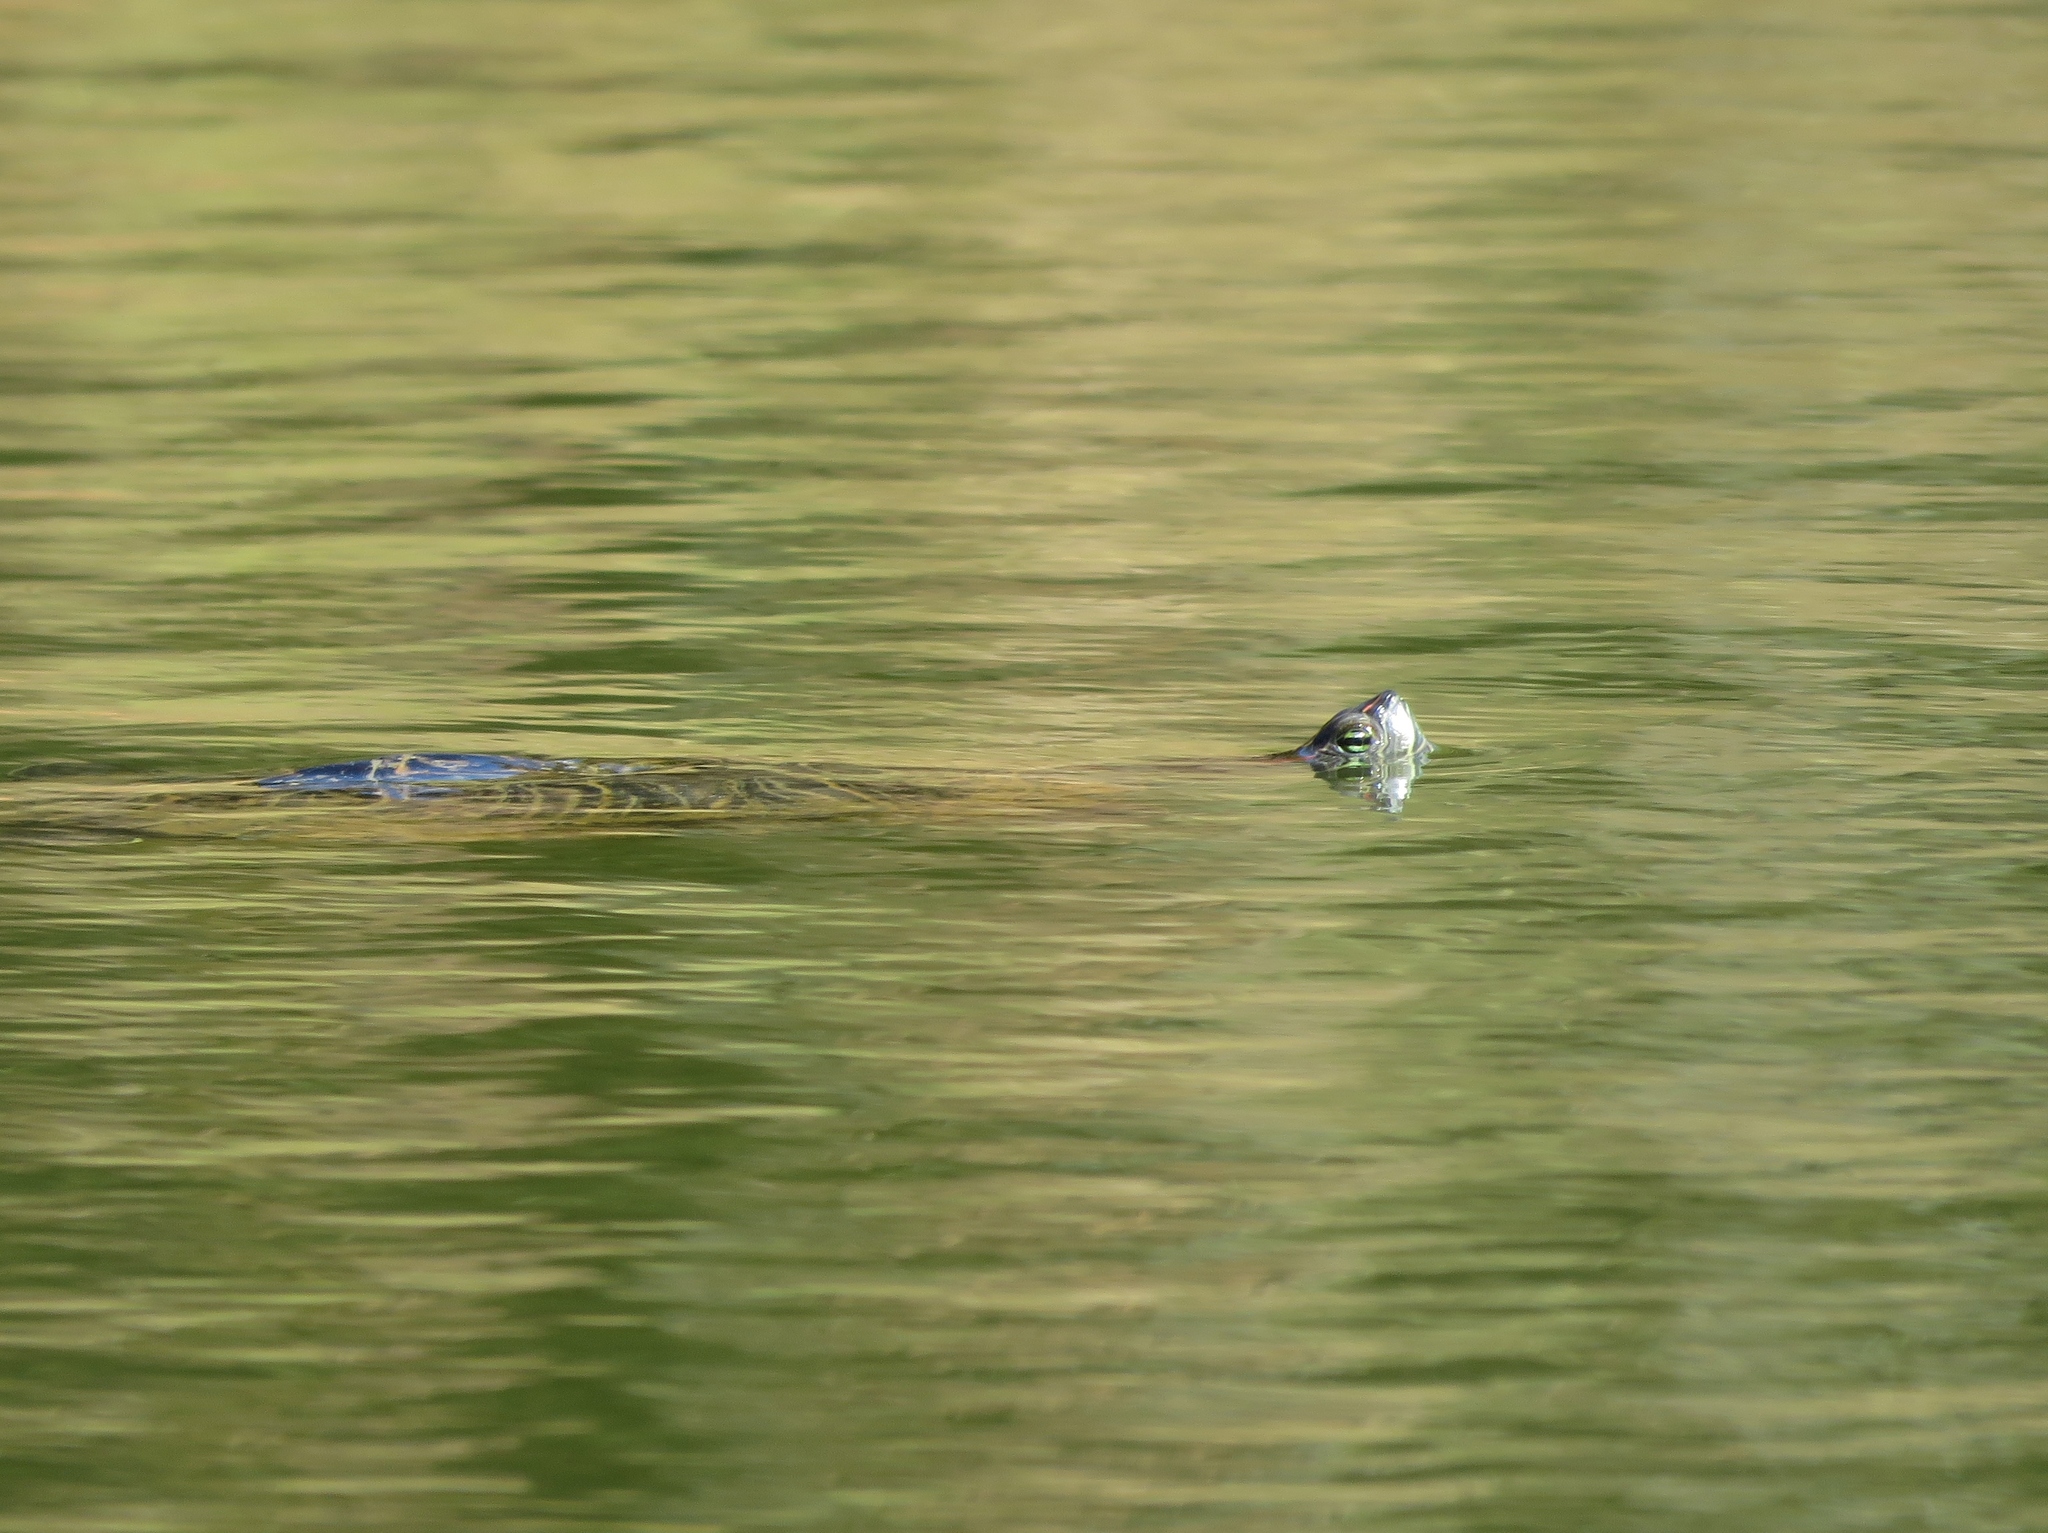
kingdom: Animalia
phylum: Chordata
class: Testudines
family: Emydidae
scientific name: Emydidae
